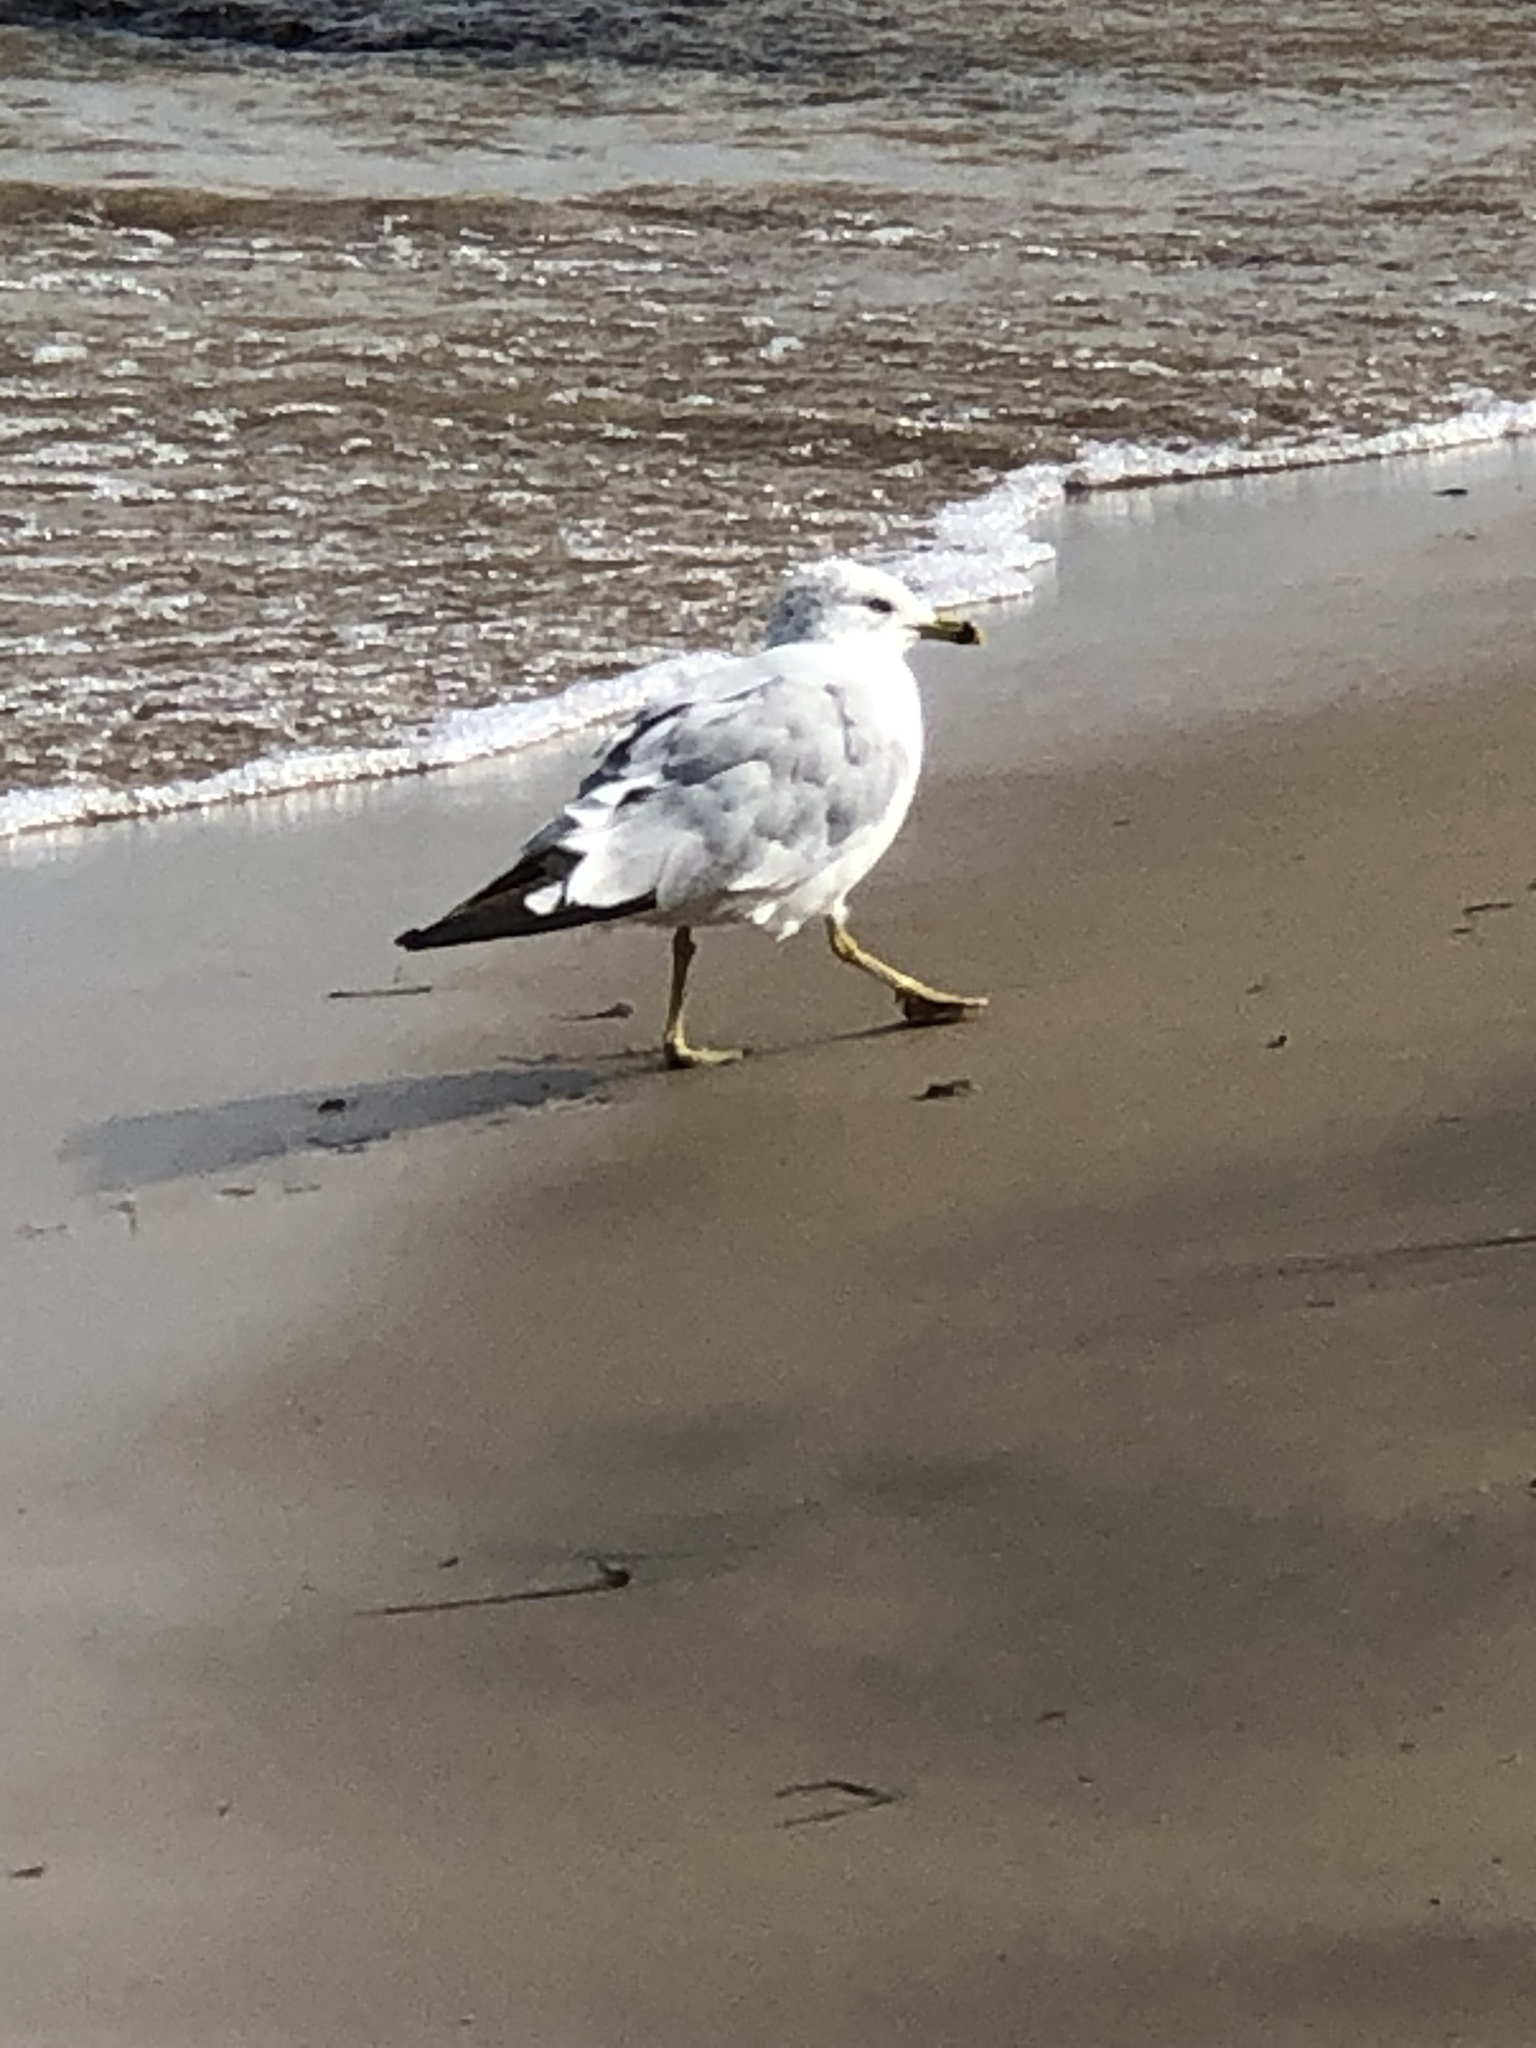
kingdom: Animalia
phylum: Chordata
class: Aves
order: Charadriiformes
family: Laridae
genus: Larus
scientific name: Larus delawarensis
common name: Ring-billed gull
